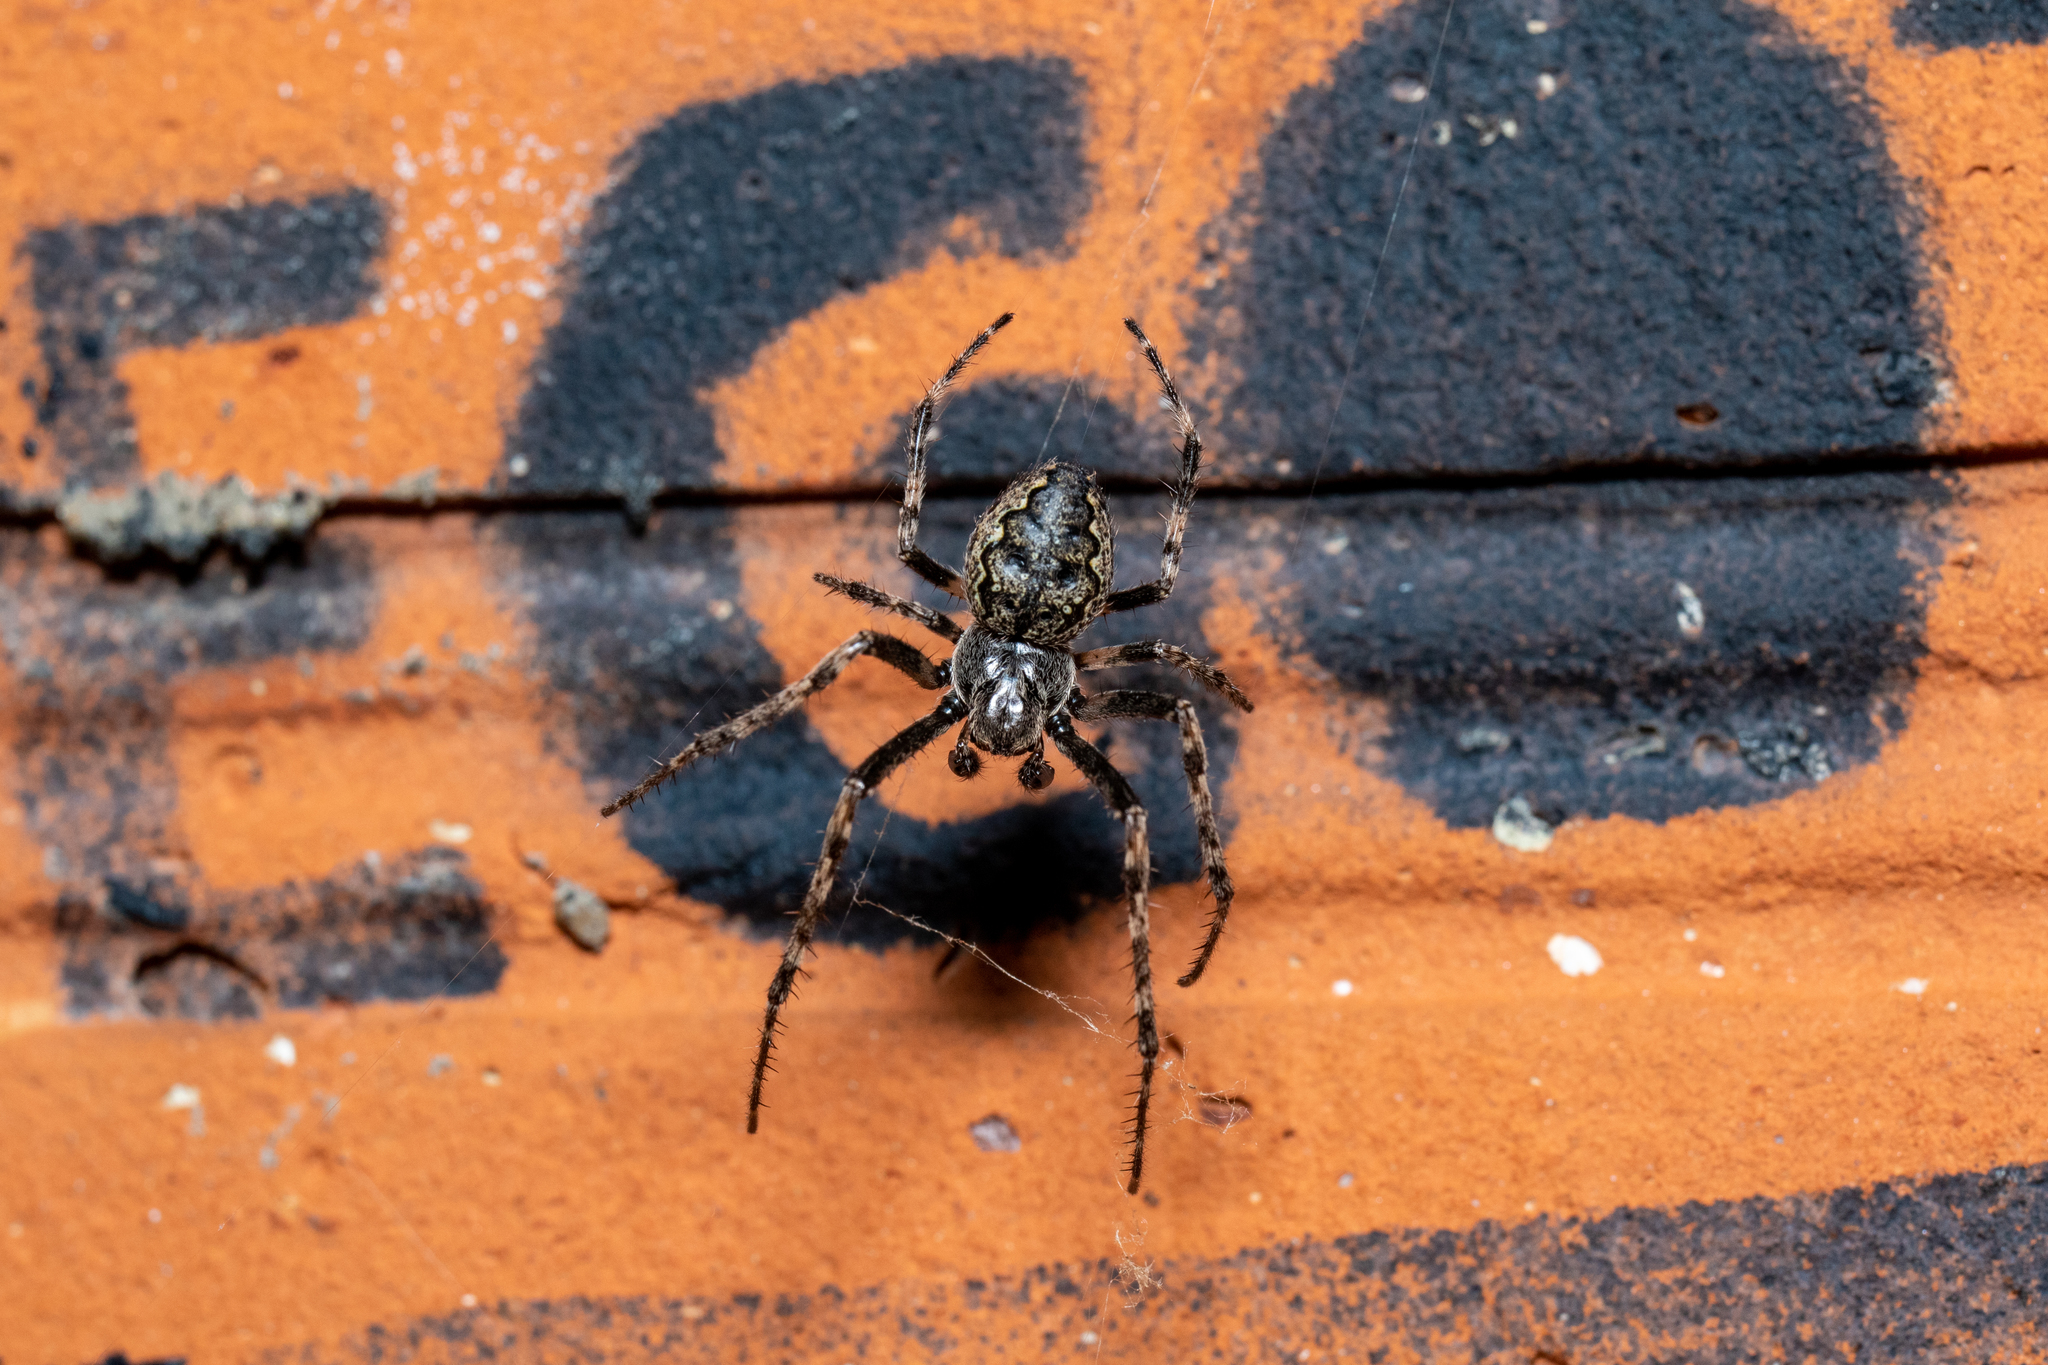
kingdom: Animalia
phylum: Arthropoda
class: Arachnida
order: Araneae
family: Araneidae
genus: Nuctenea
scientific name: Nuctenea umbratica
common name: Toad spider
